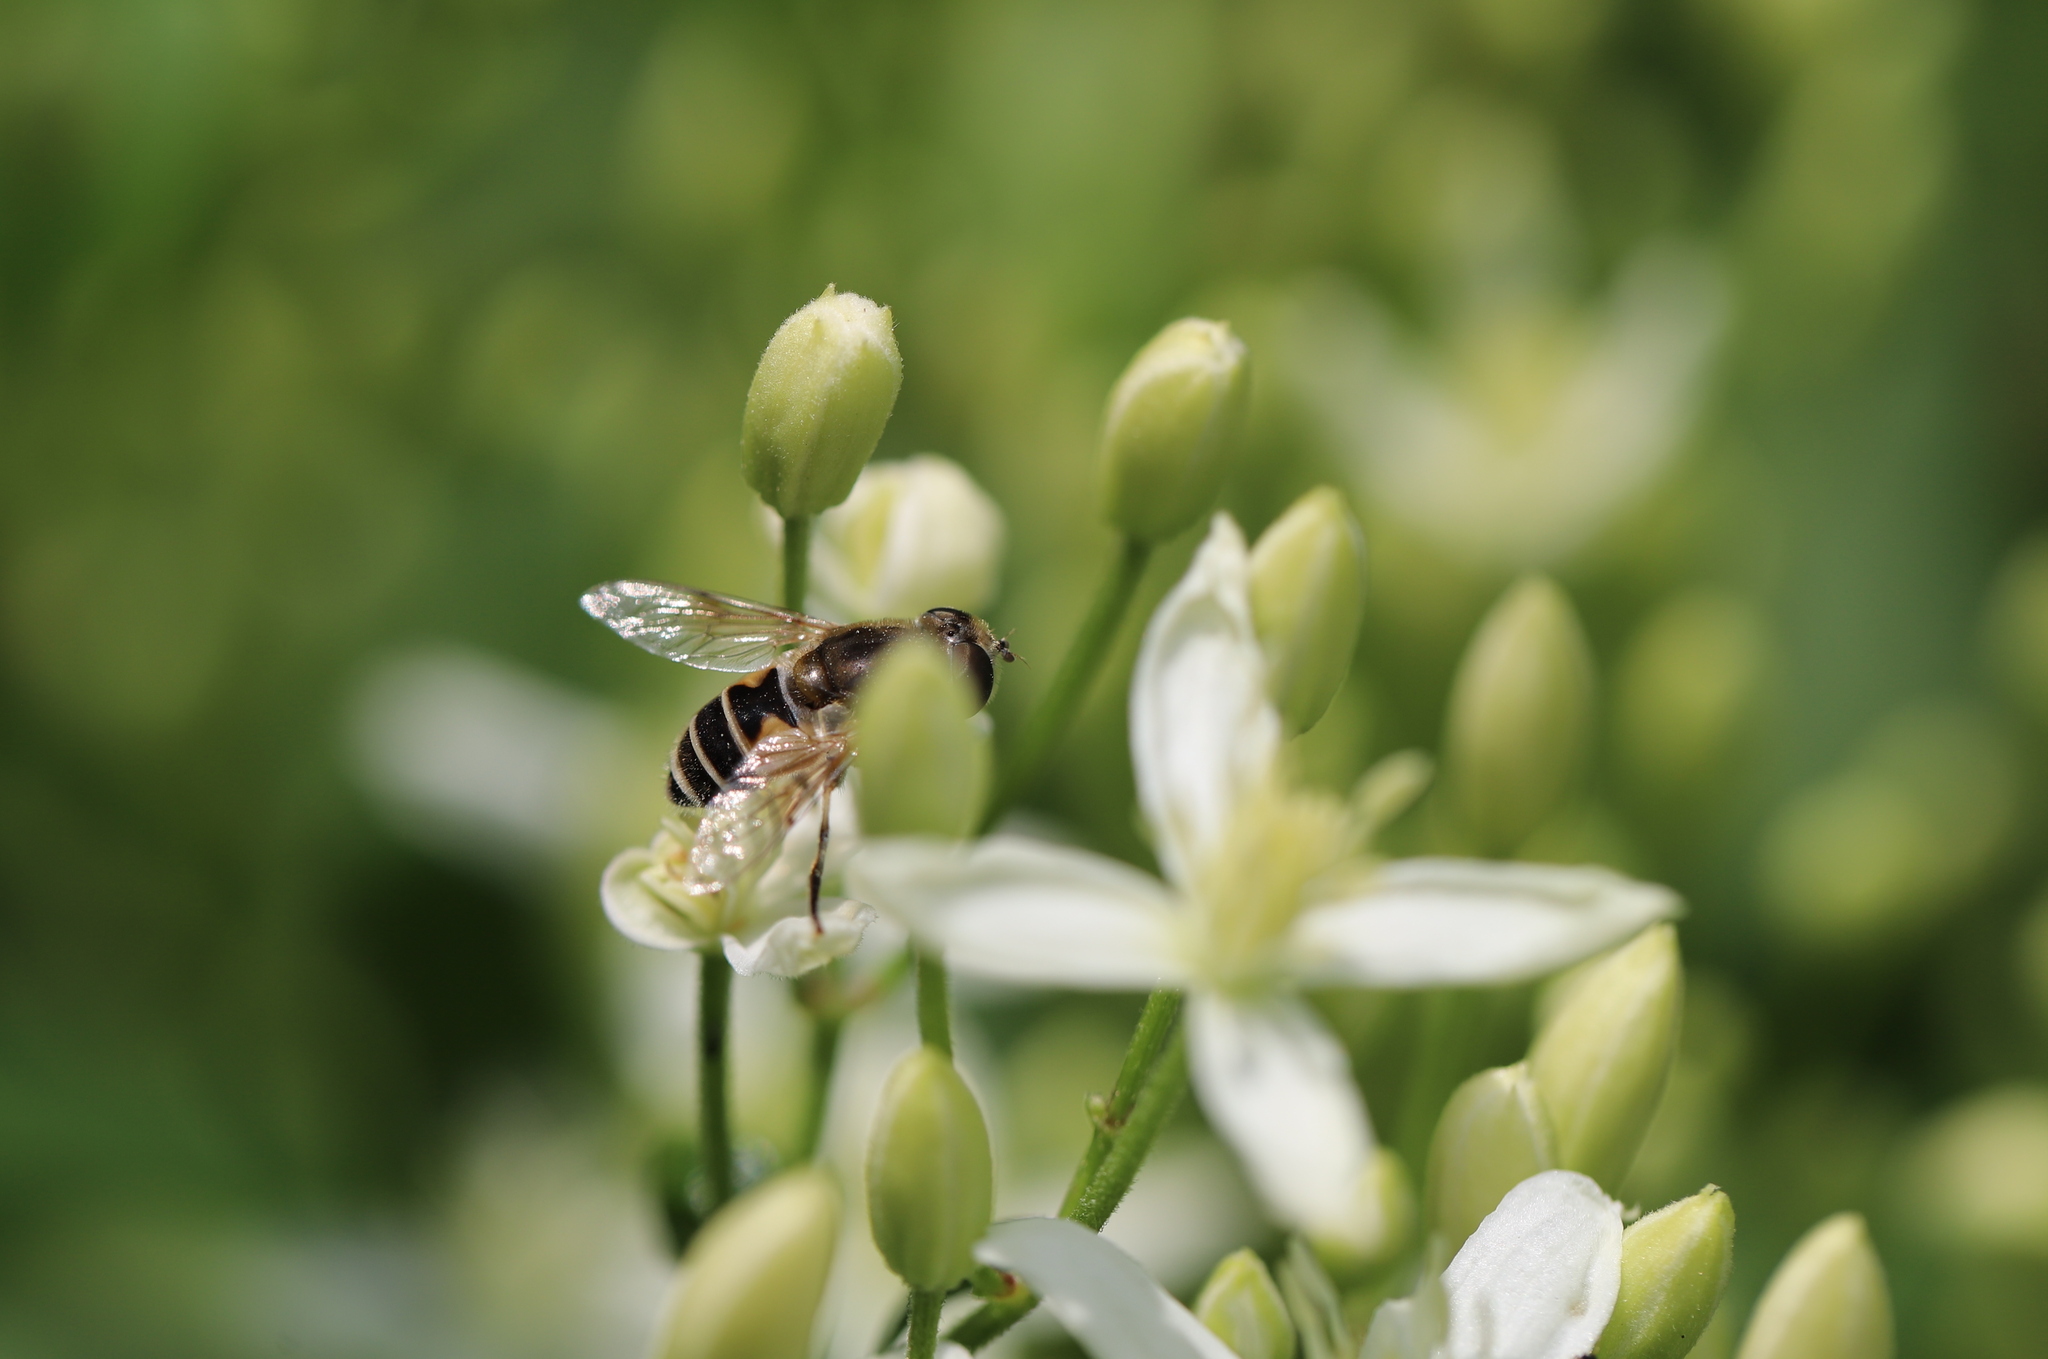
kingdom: Animalia
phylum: Arthropoda
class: Insecta
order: Diptera
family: Syrphidae
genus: Eristalis
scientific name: Eristalis arbustorum
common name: Hover fly
